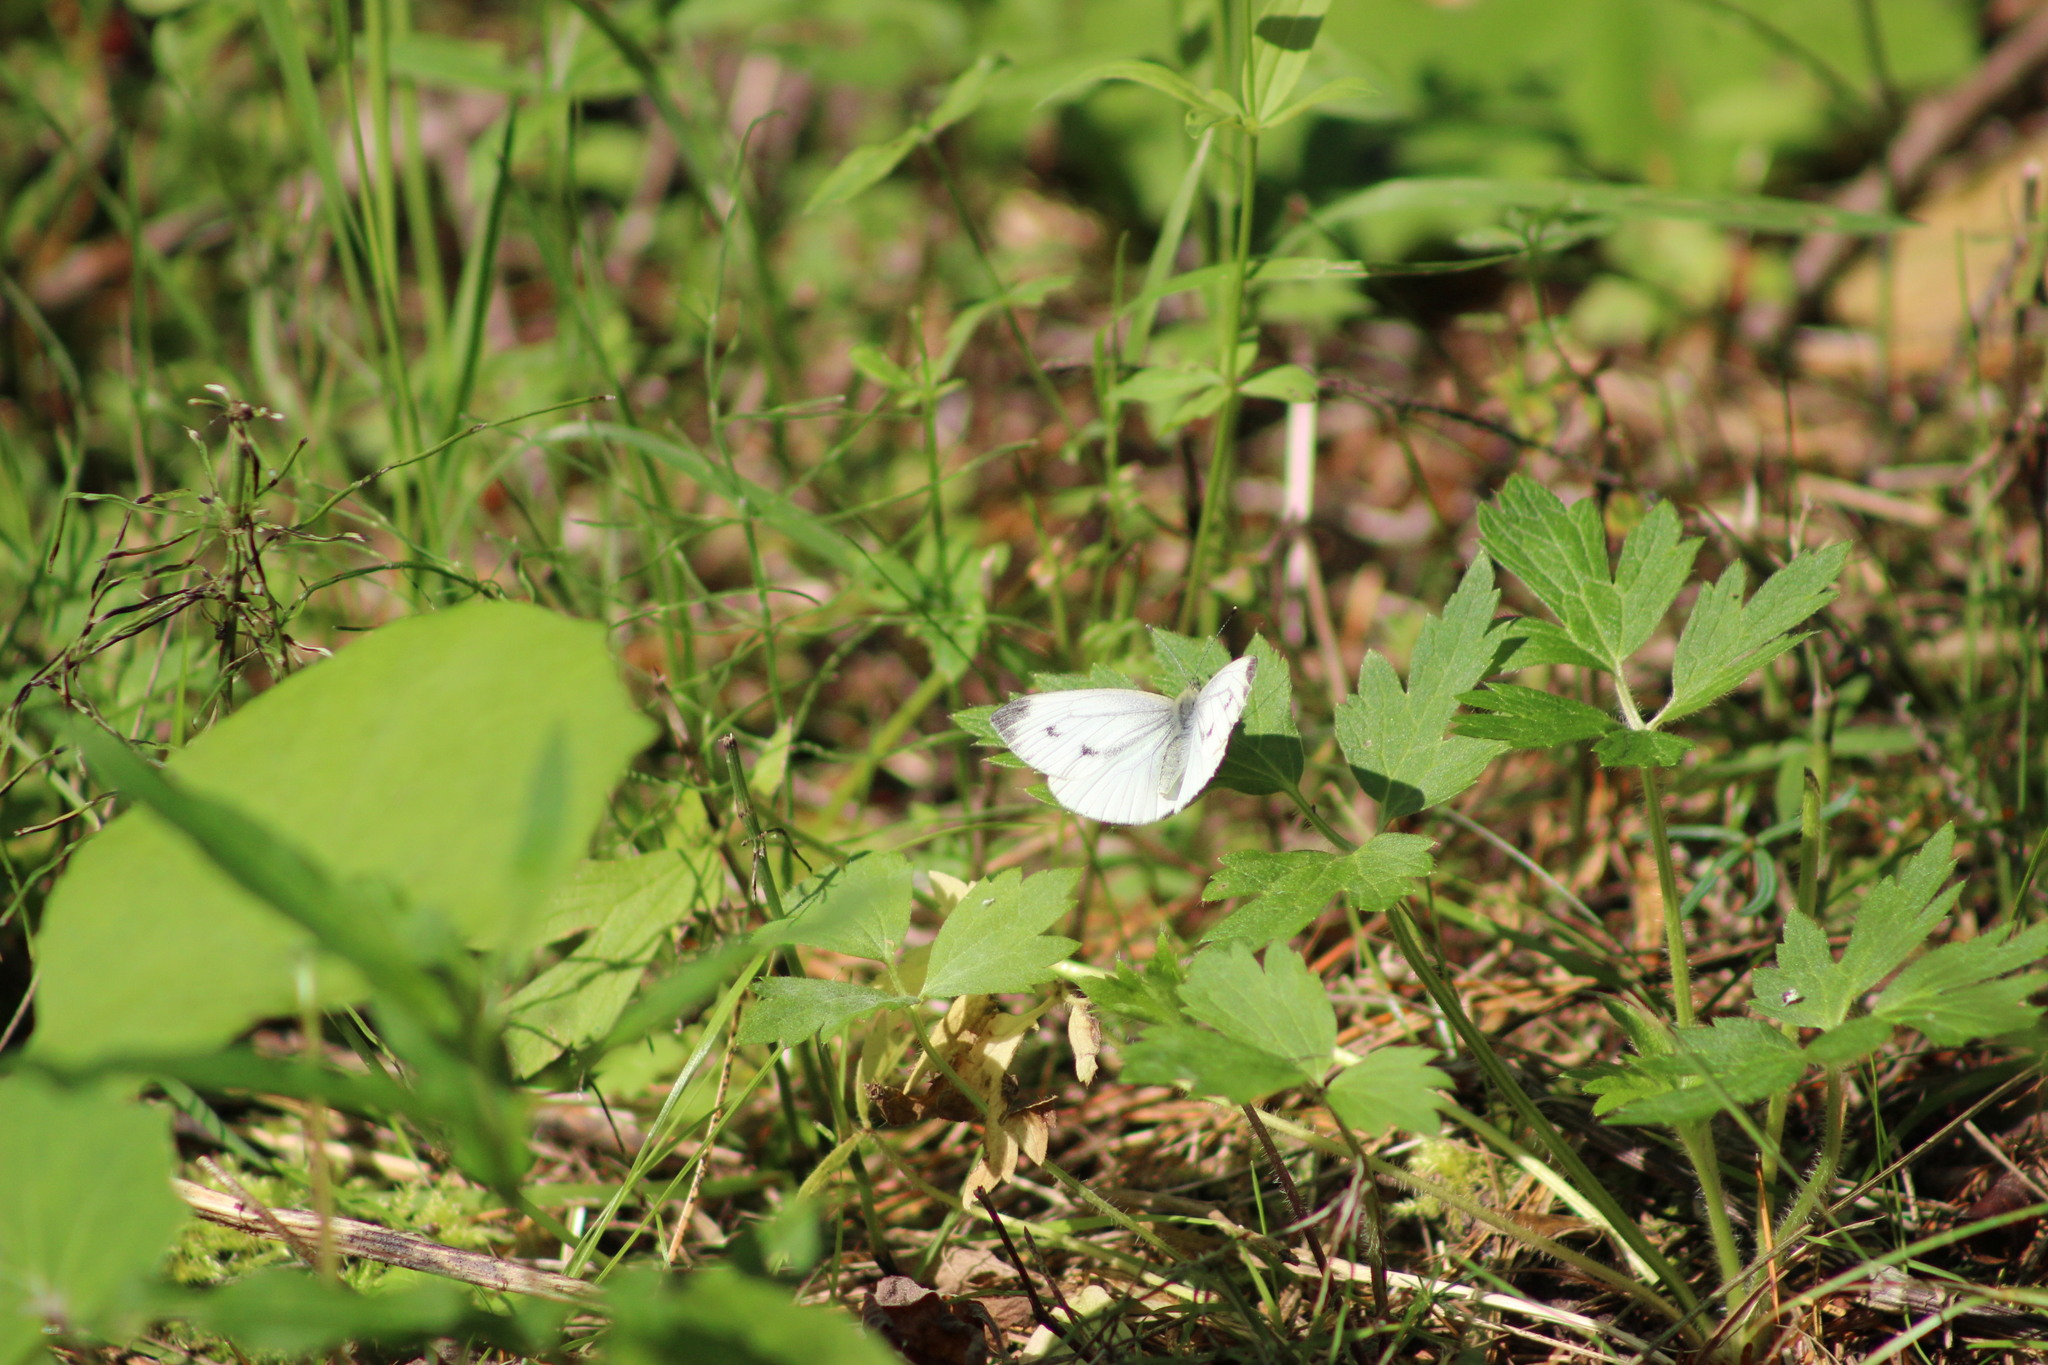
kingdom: Animalia
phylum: Arthropoda
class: Insecta
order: Lepidoptera
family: Pieridae
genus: Pieris
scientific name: Pieris napi
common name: Green-veined white
